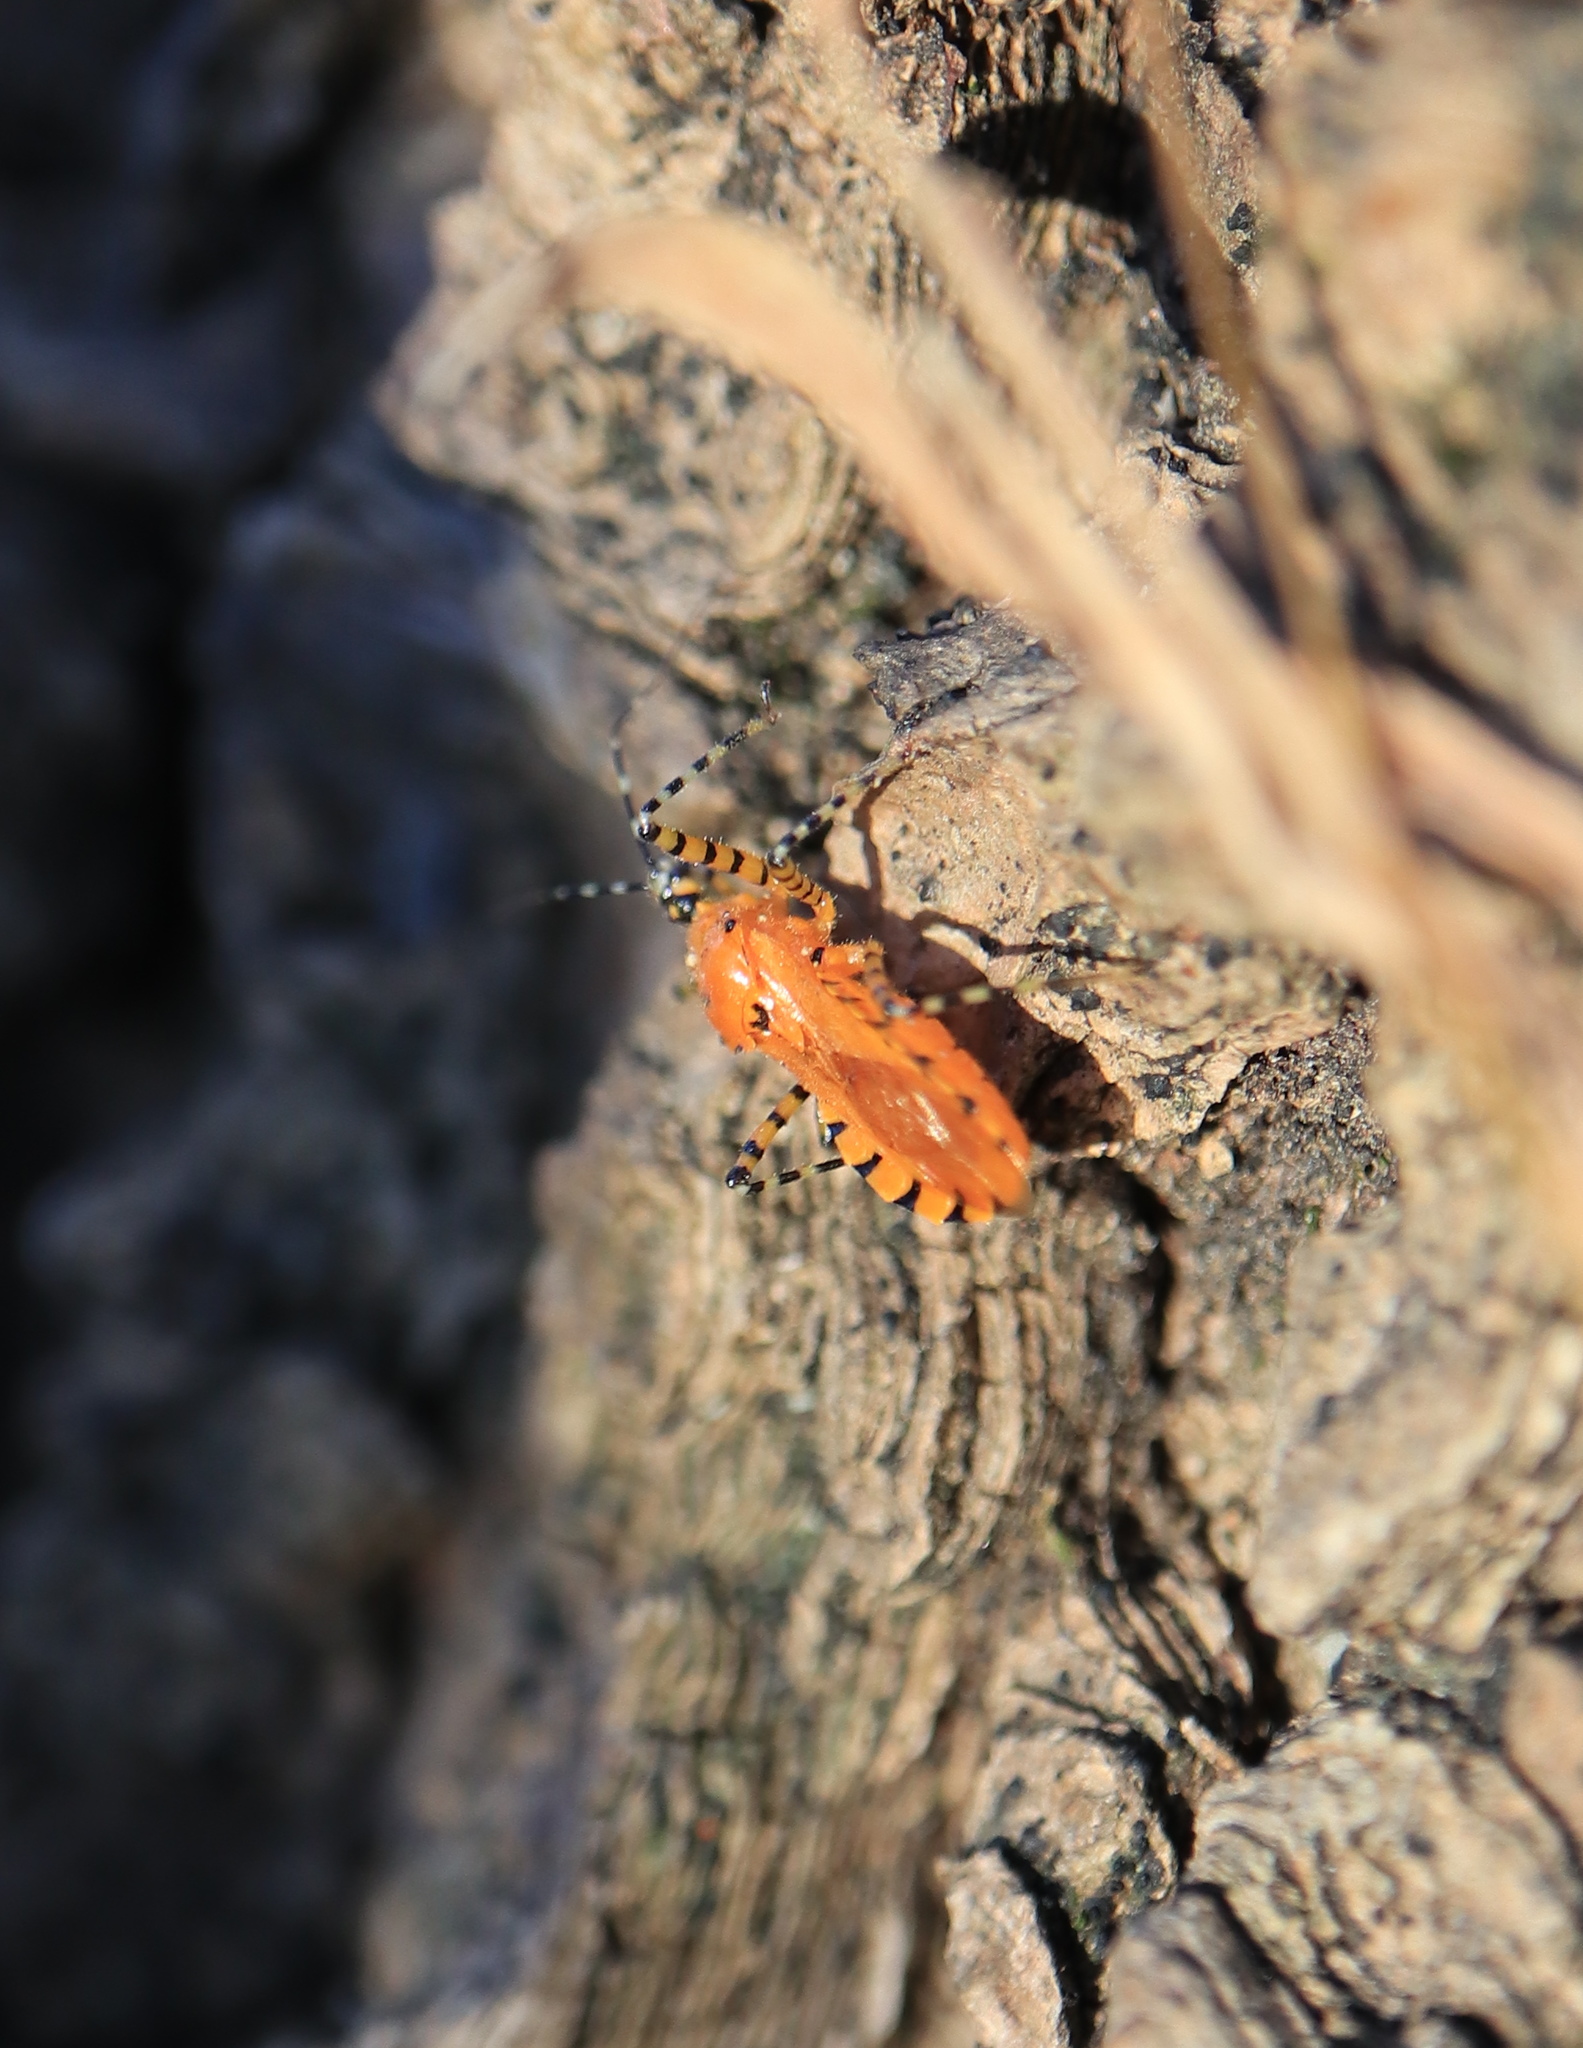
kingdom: Animalia
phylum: Arthropoda
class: Insecta
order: Hemiptera
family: Reduviidae
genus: Pselliopus
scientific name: Pselliopus barberi
